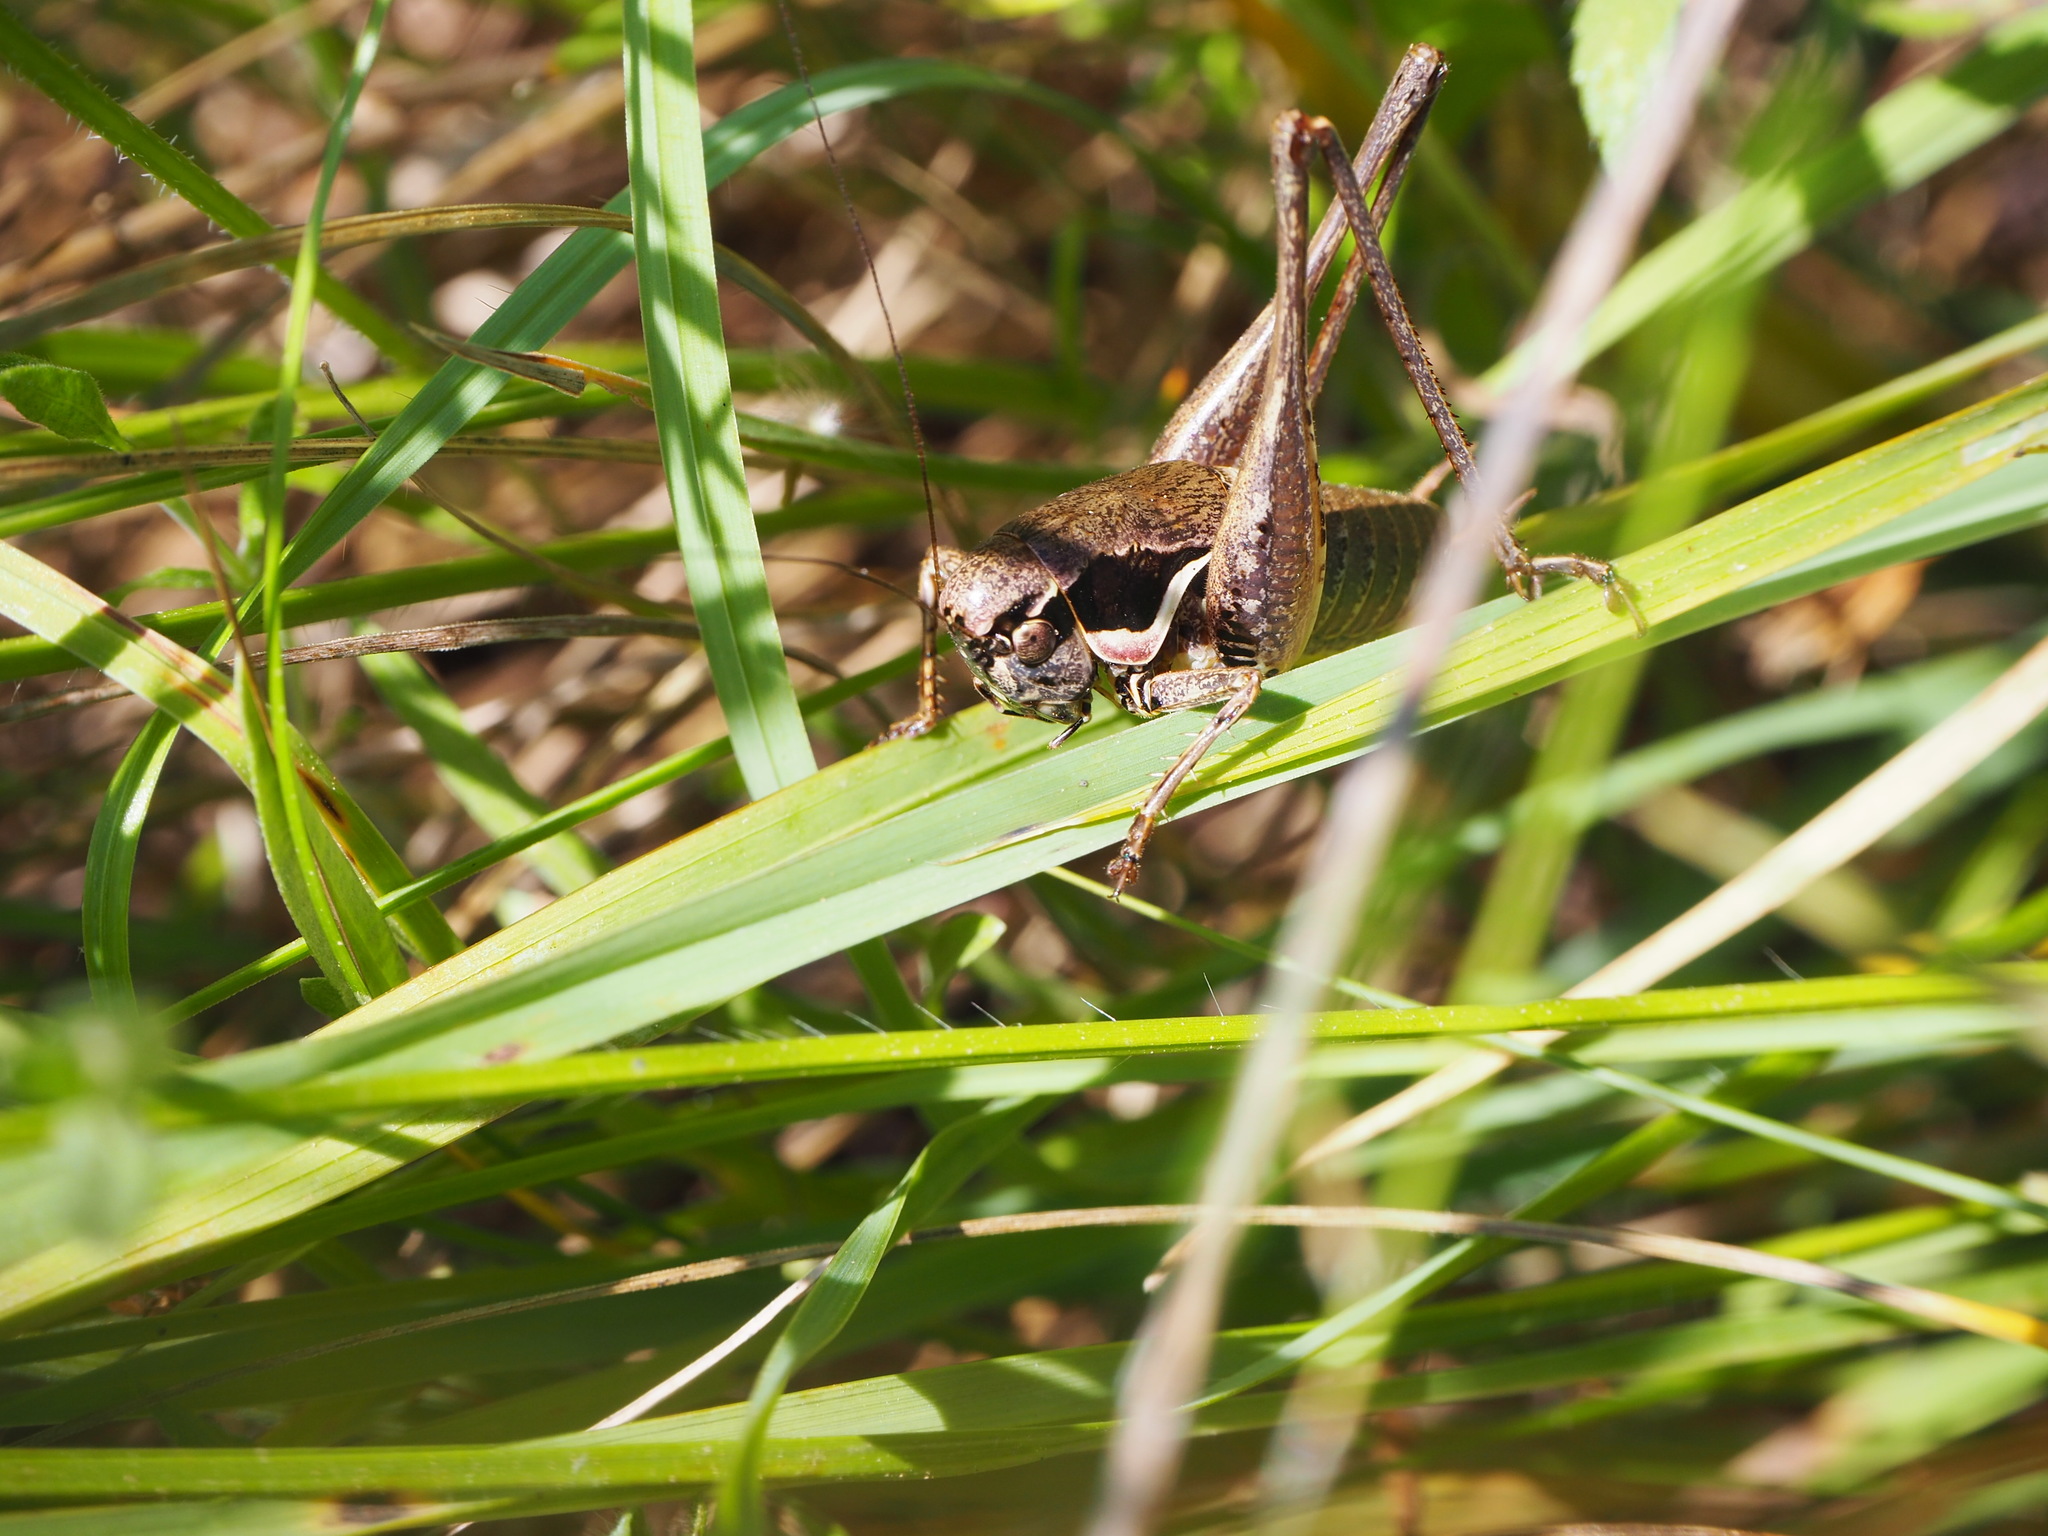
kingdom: Animalia
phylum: Arthropoda
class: Insecta
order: Orthoptera
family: Tettigoniidae
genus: Pholidoptera
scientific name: Pholidoptera femorata
